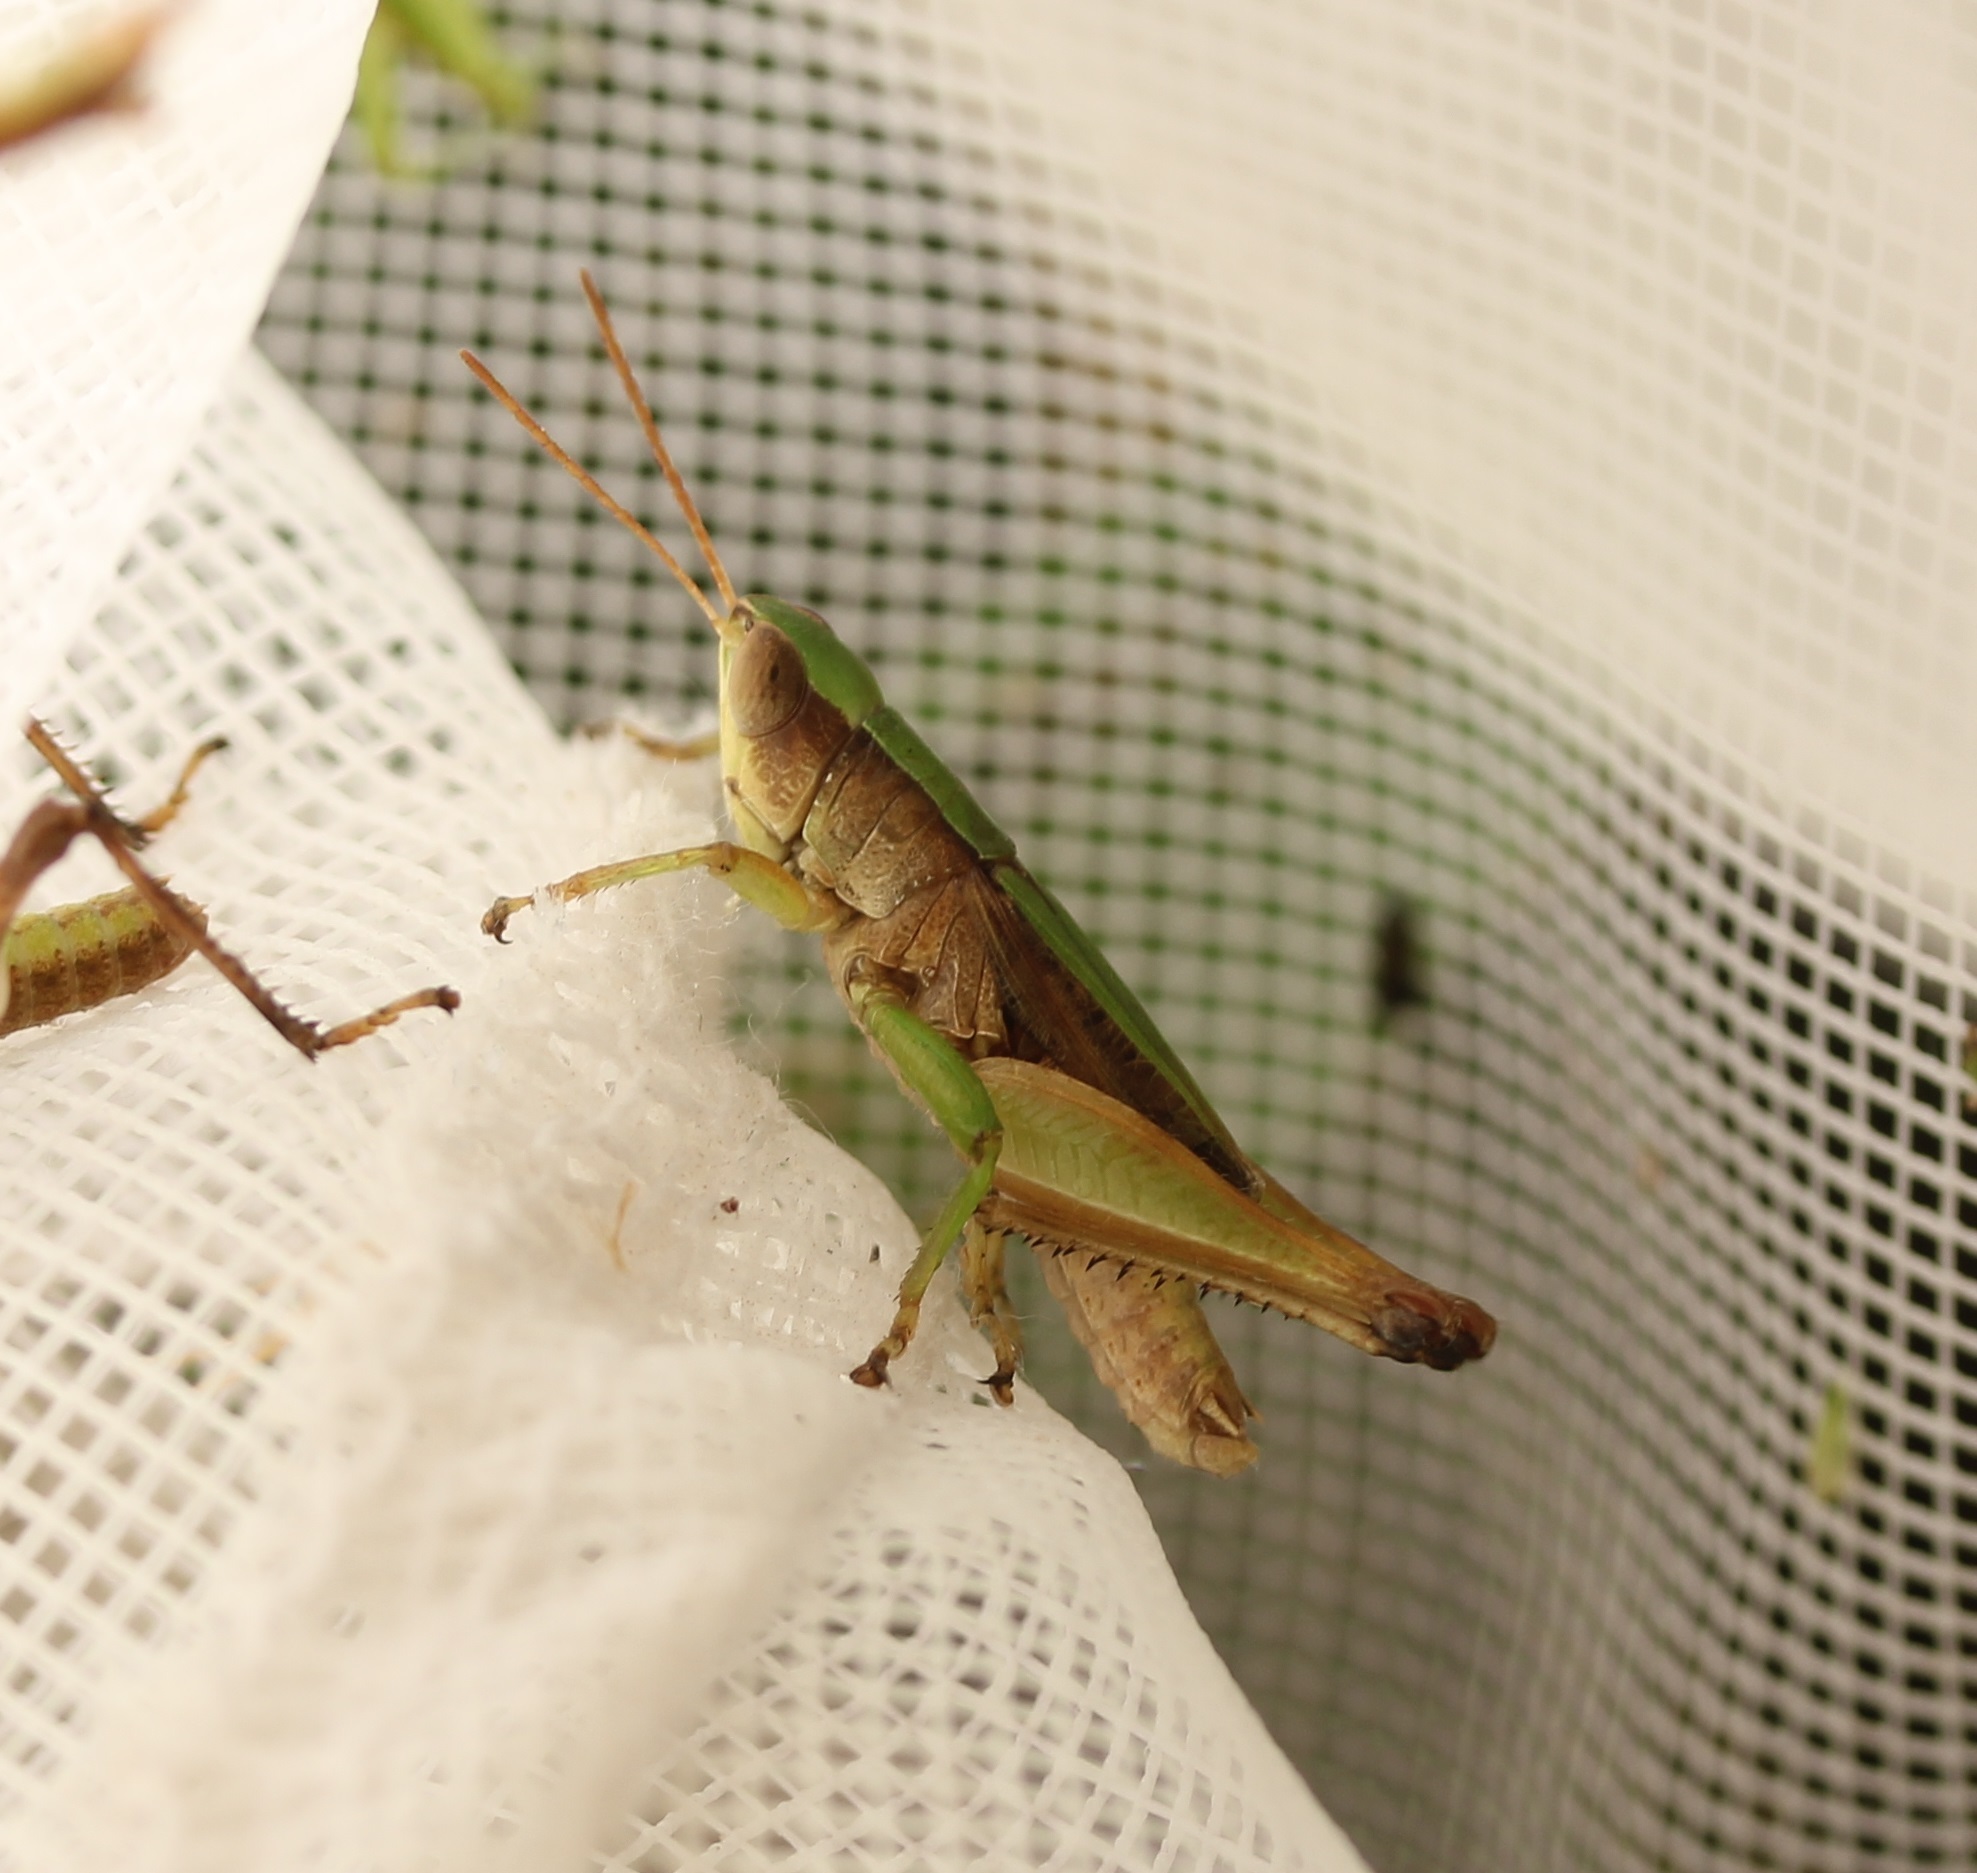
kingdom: Animalia
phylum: Arthropoda
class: Insecta
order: Orthoptera
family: Acrididae
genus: Dichromorpha
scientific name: Dichromorpha viridis
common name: Short-winged green grasshopper
